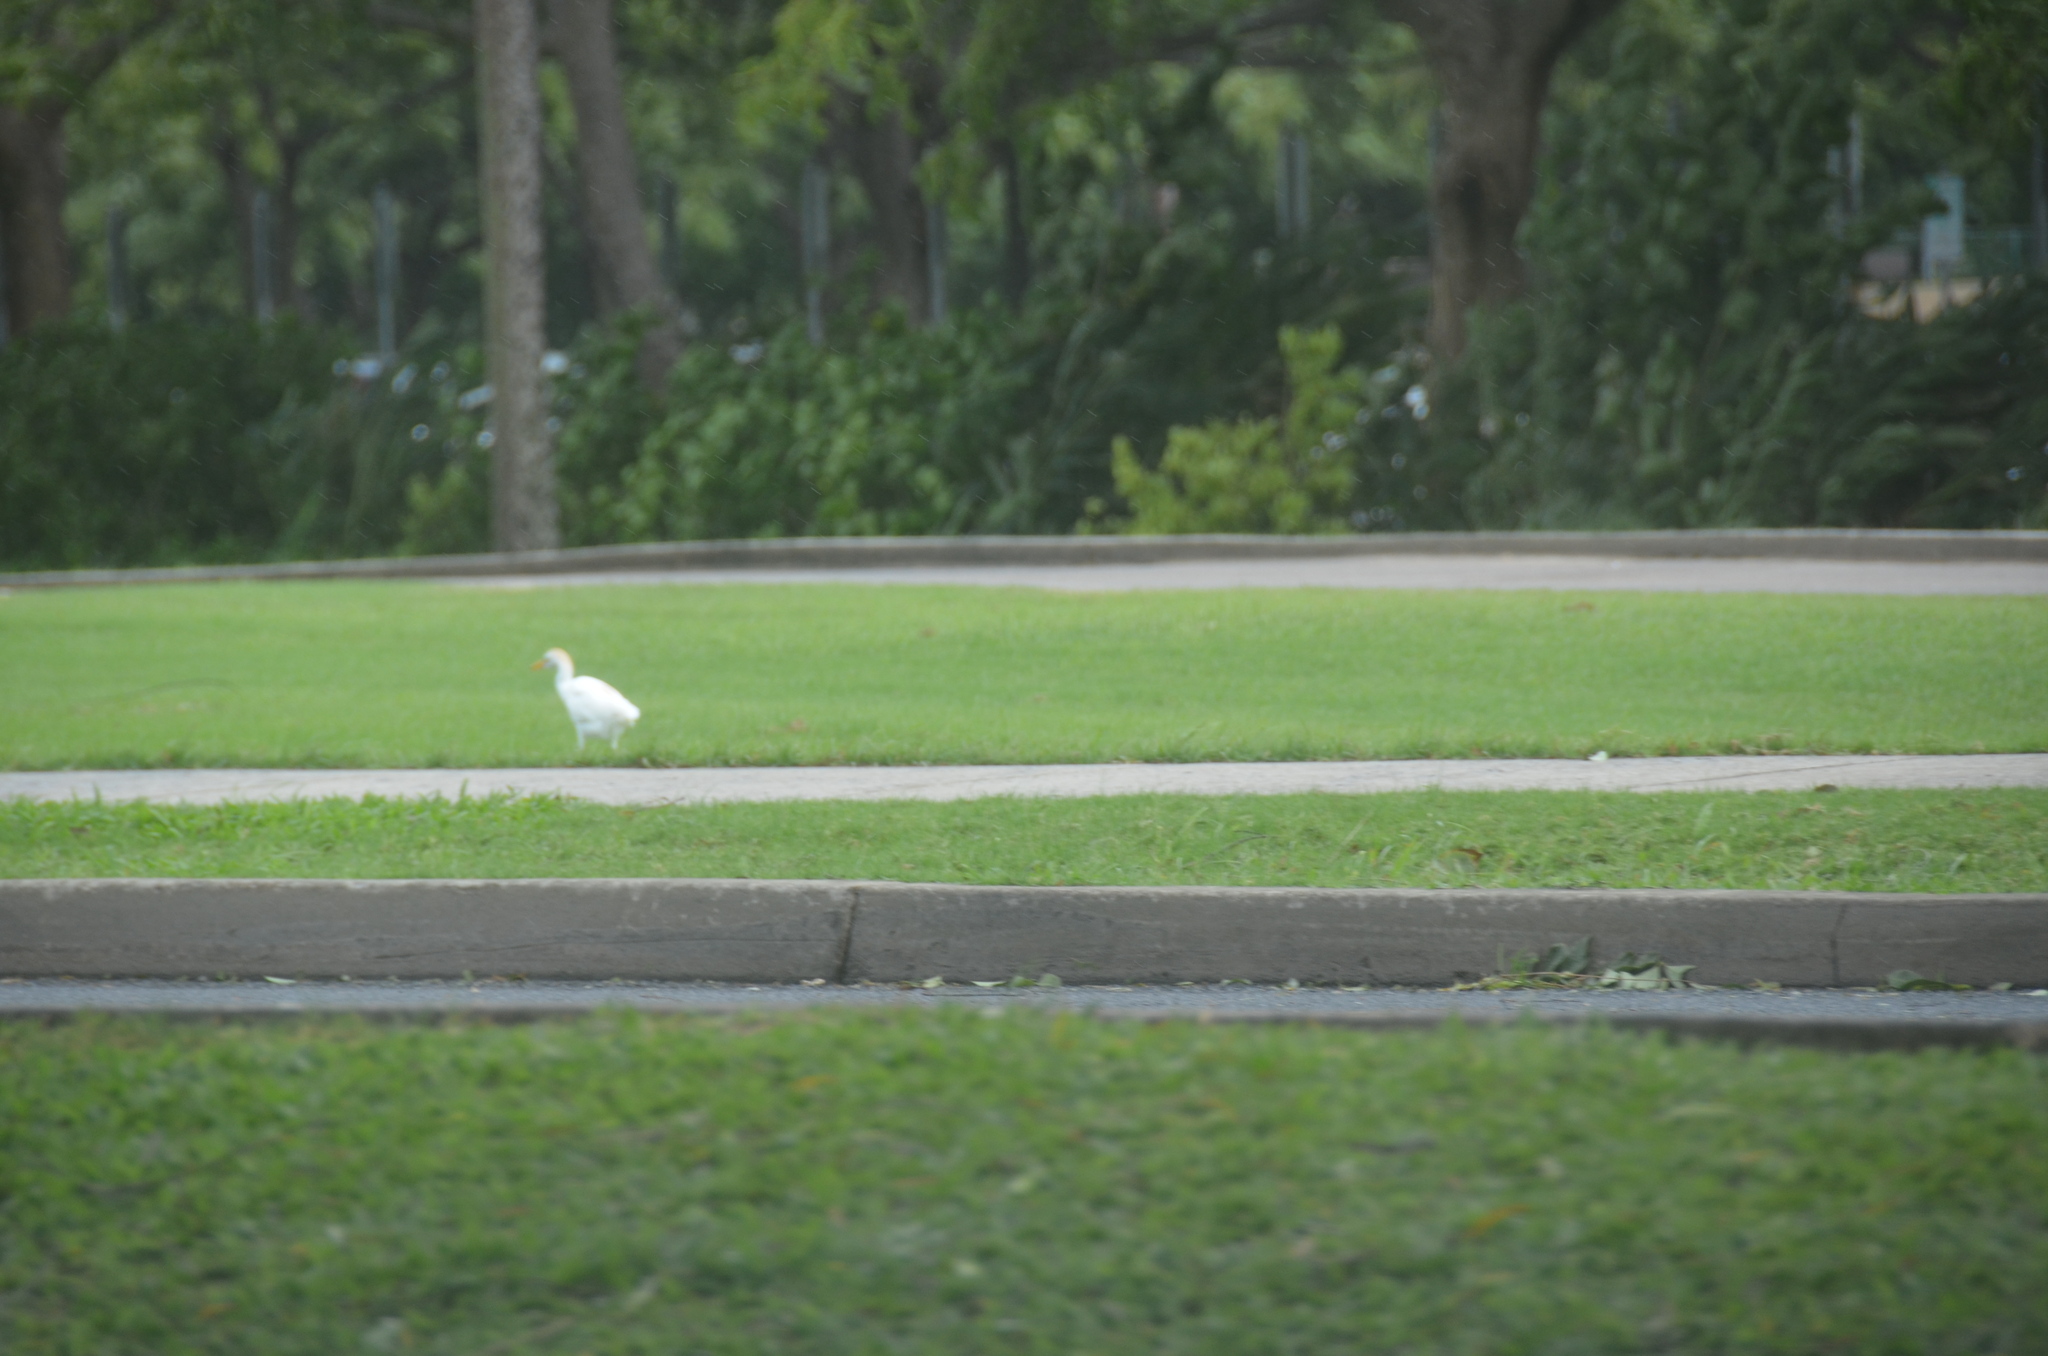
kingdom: Animalia
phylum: Chordata
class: Aves
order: Pelecaniformes
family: Ardeidae
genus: Bubulcus
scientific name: Bubulcus ibis
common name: Cattle egret
